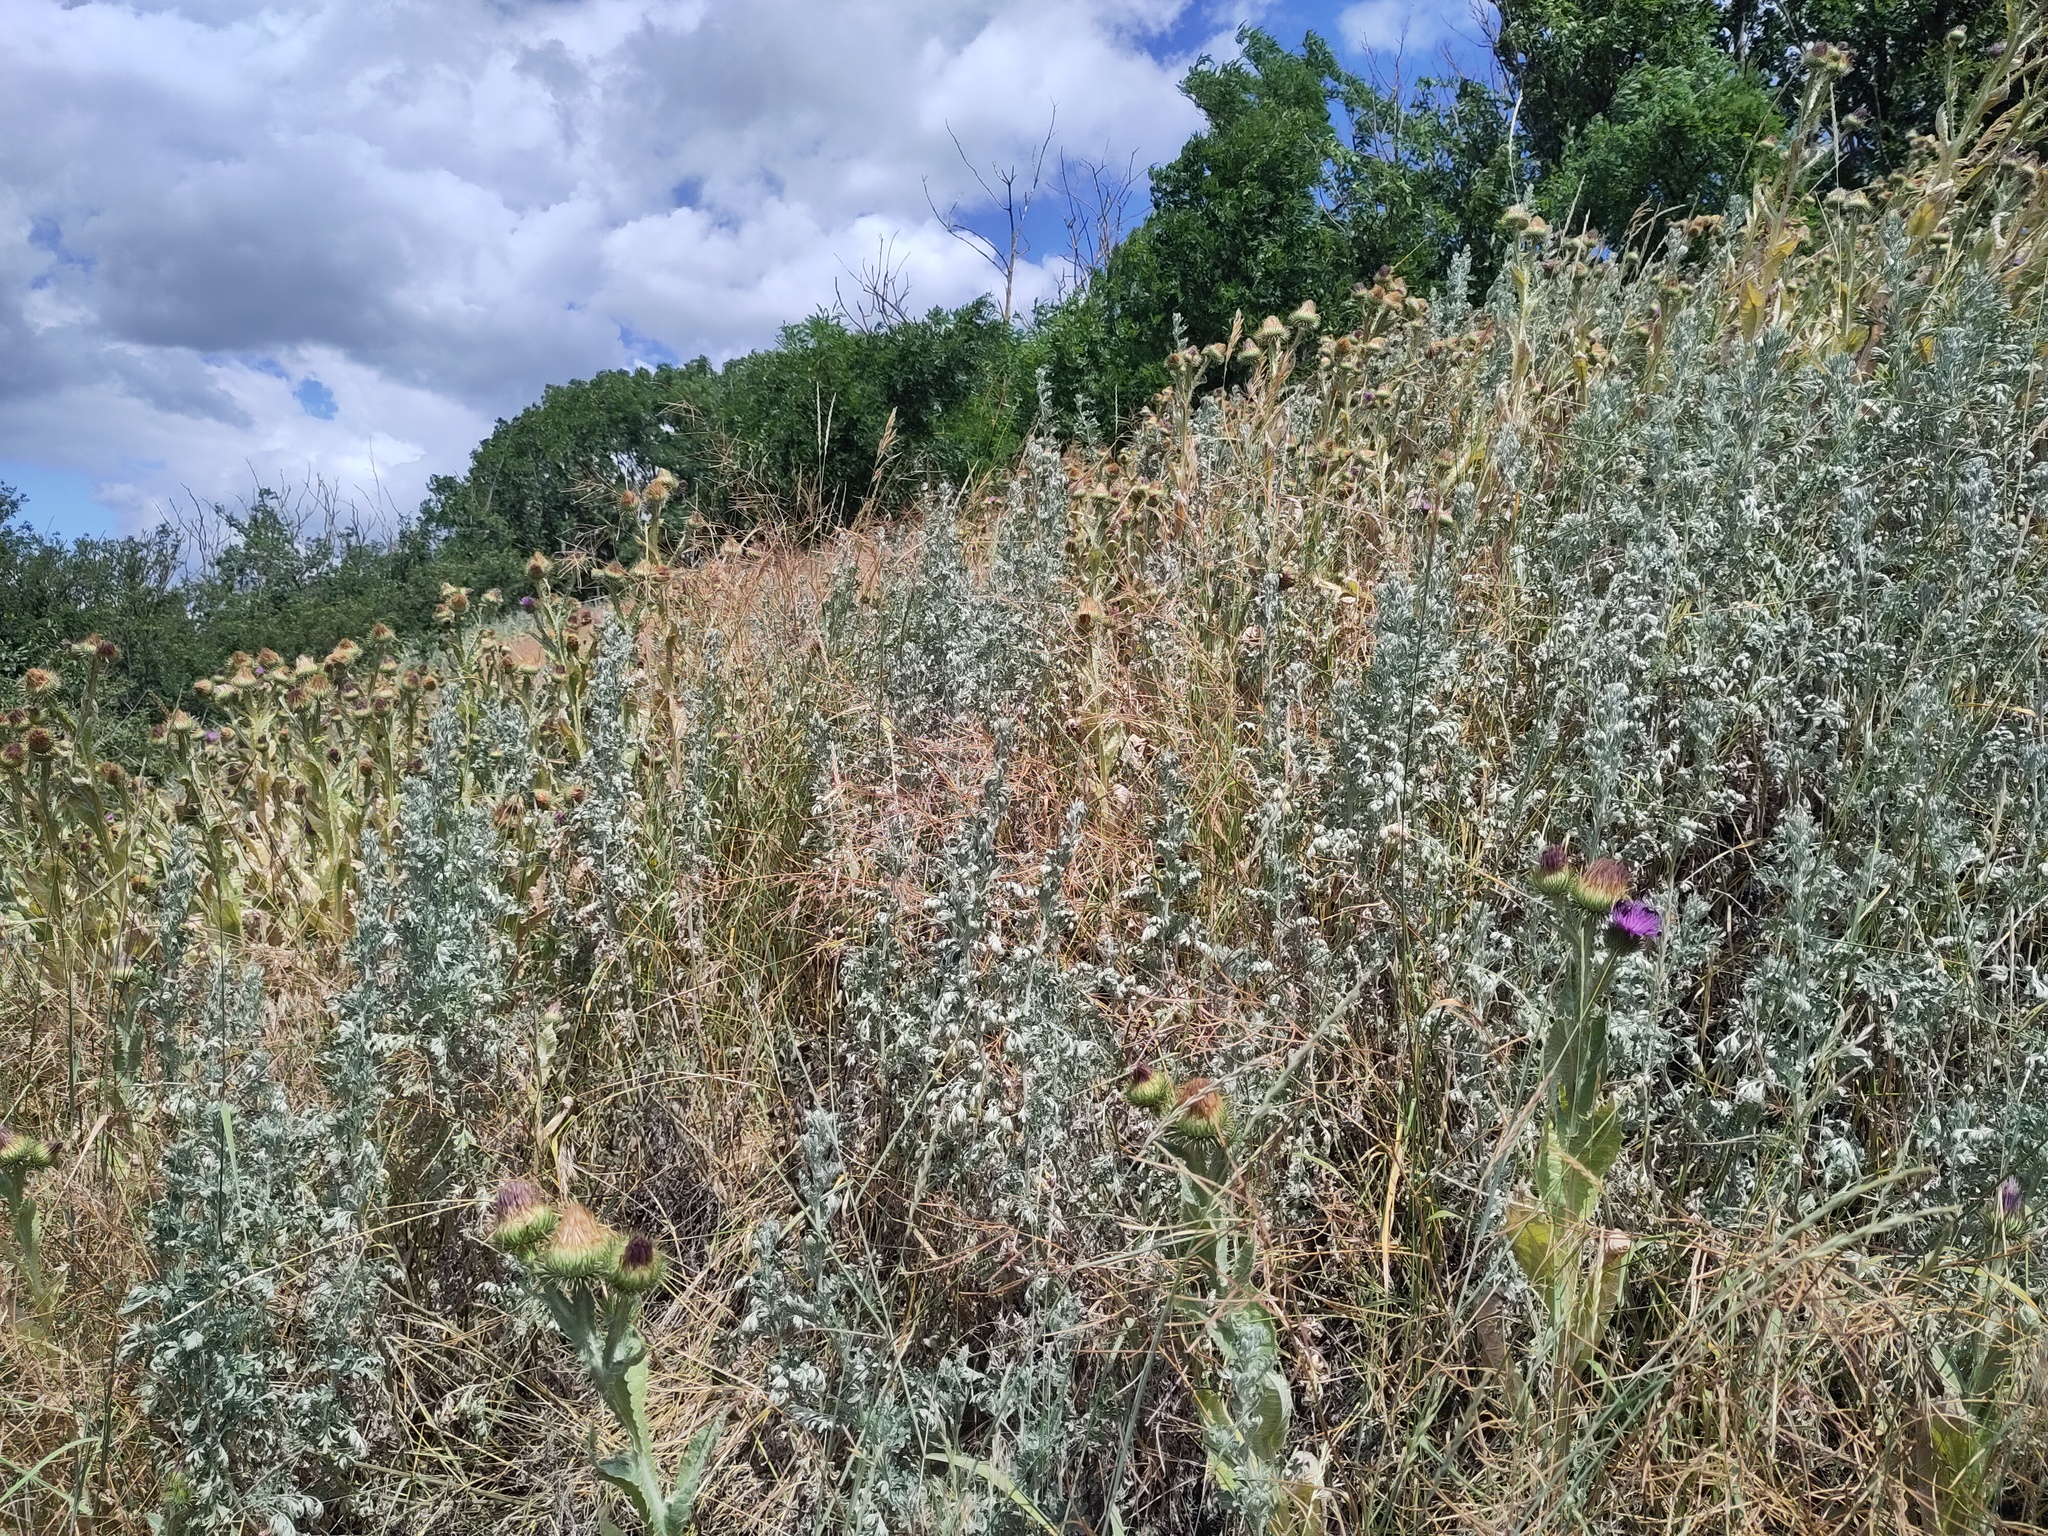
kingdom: Plantae
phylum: Tracheophyta
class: Magnoliopsida
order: Asterales
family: Asteraceae
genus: Artemisia
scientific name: Artemisia absinthium
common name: Wormwood
